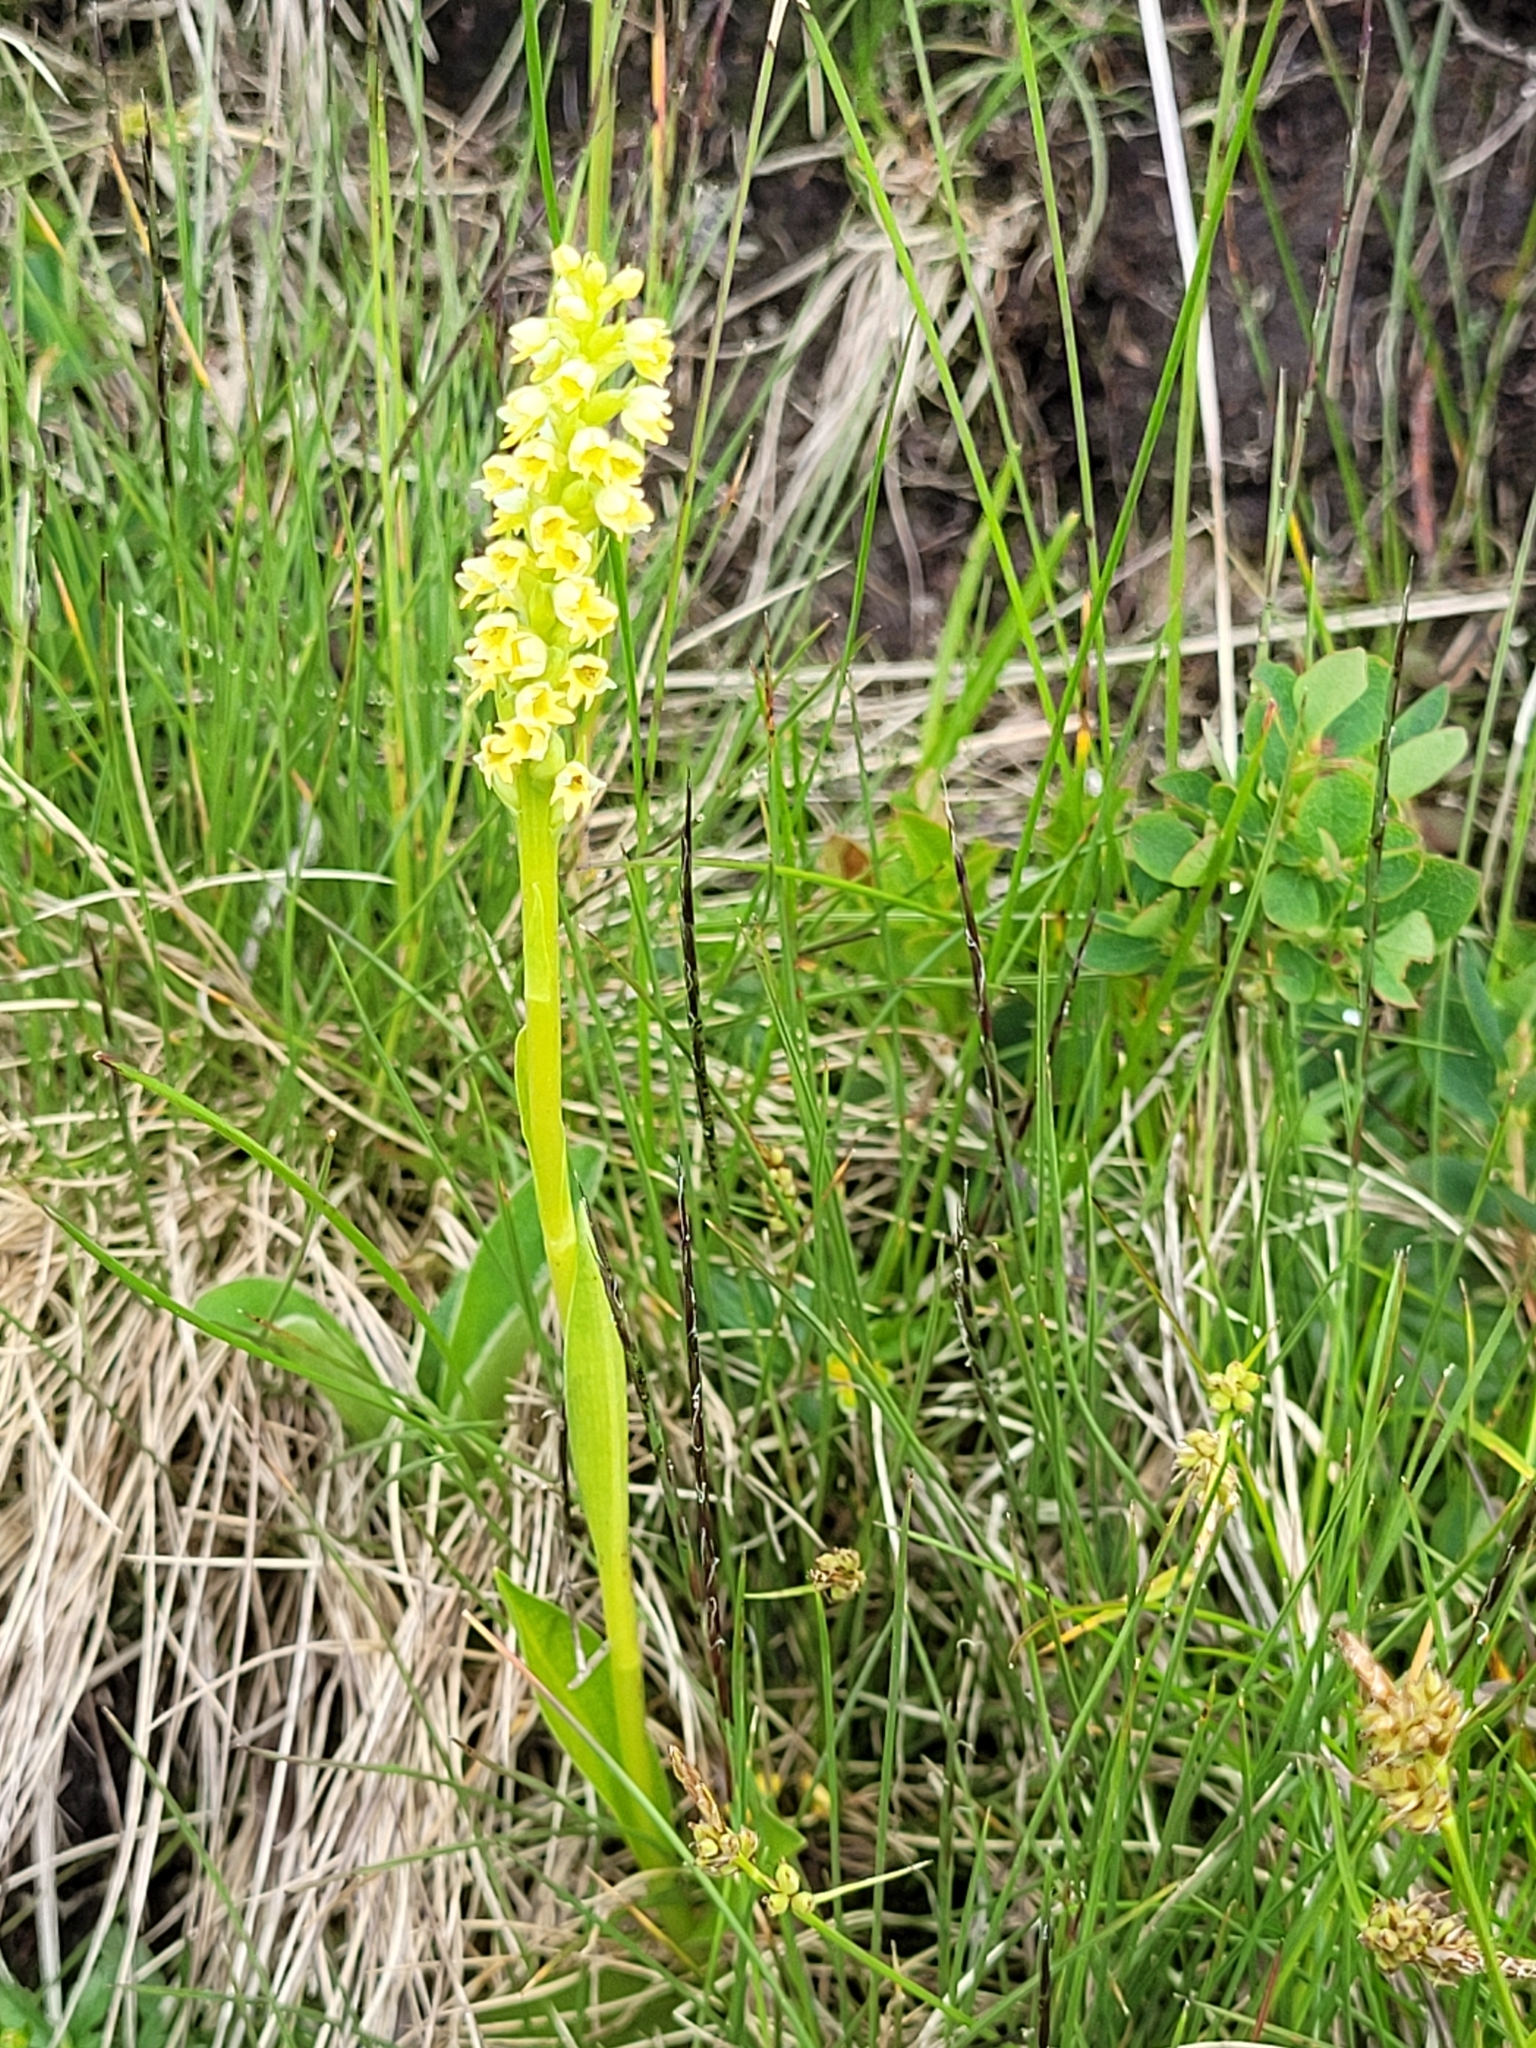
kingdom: Plantae
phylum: Tracheophyta
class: Liliopsida
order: Asparagales
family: Orchidaceae
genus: Pseudorchis
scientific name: Pseudorchis albida
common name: Small-white orchid
